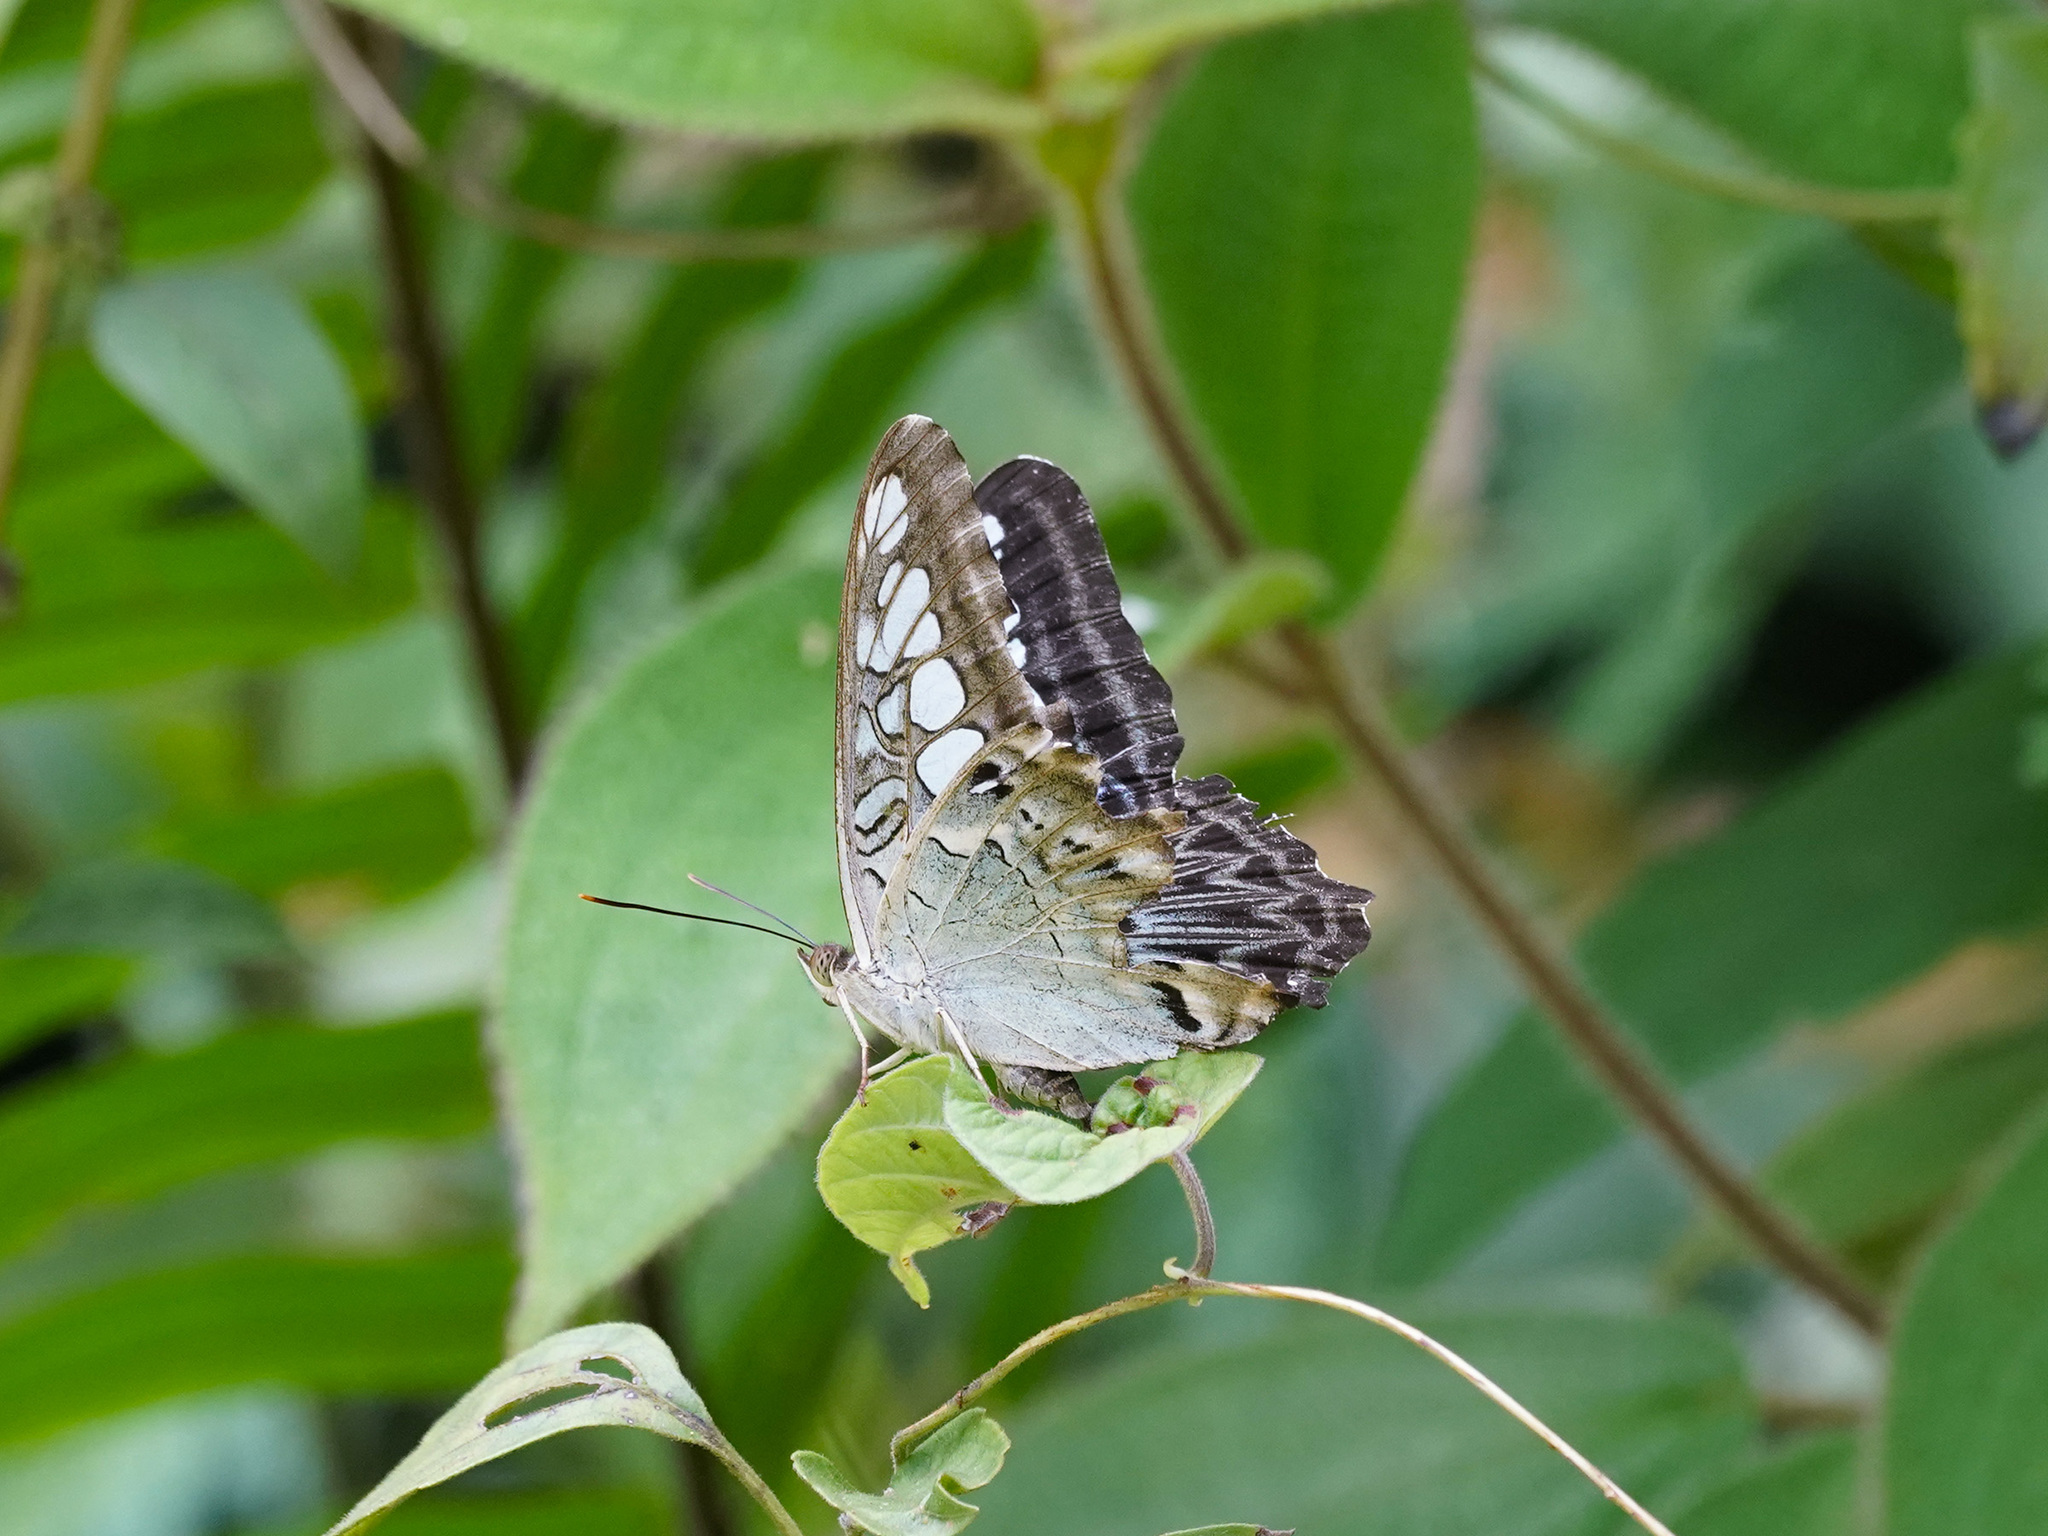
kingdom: Animalia
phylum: Arthropoda
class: Insecta
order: Lepidoptera
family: Nymphalidae
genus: Kallima
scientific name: Kallima sylvia
